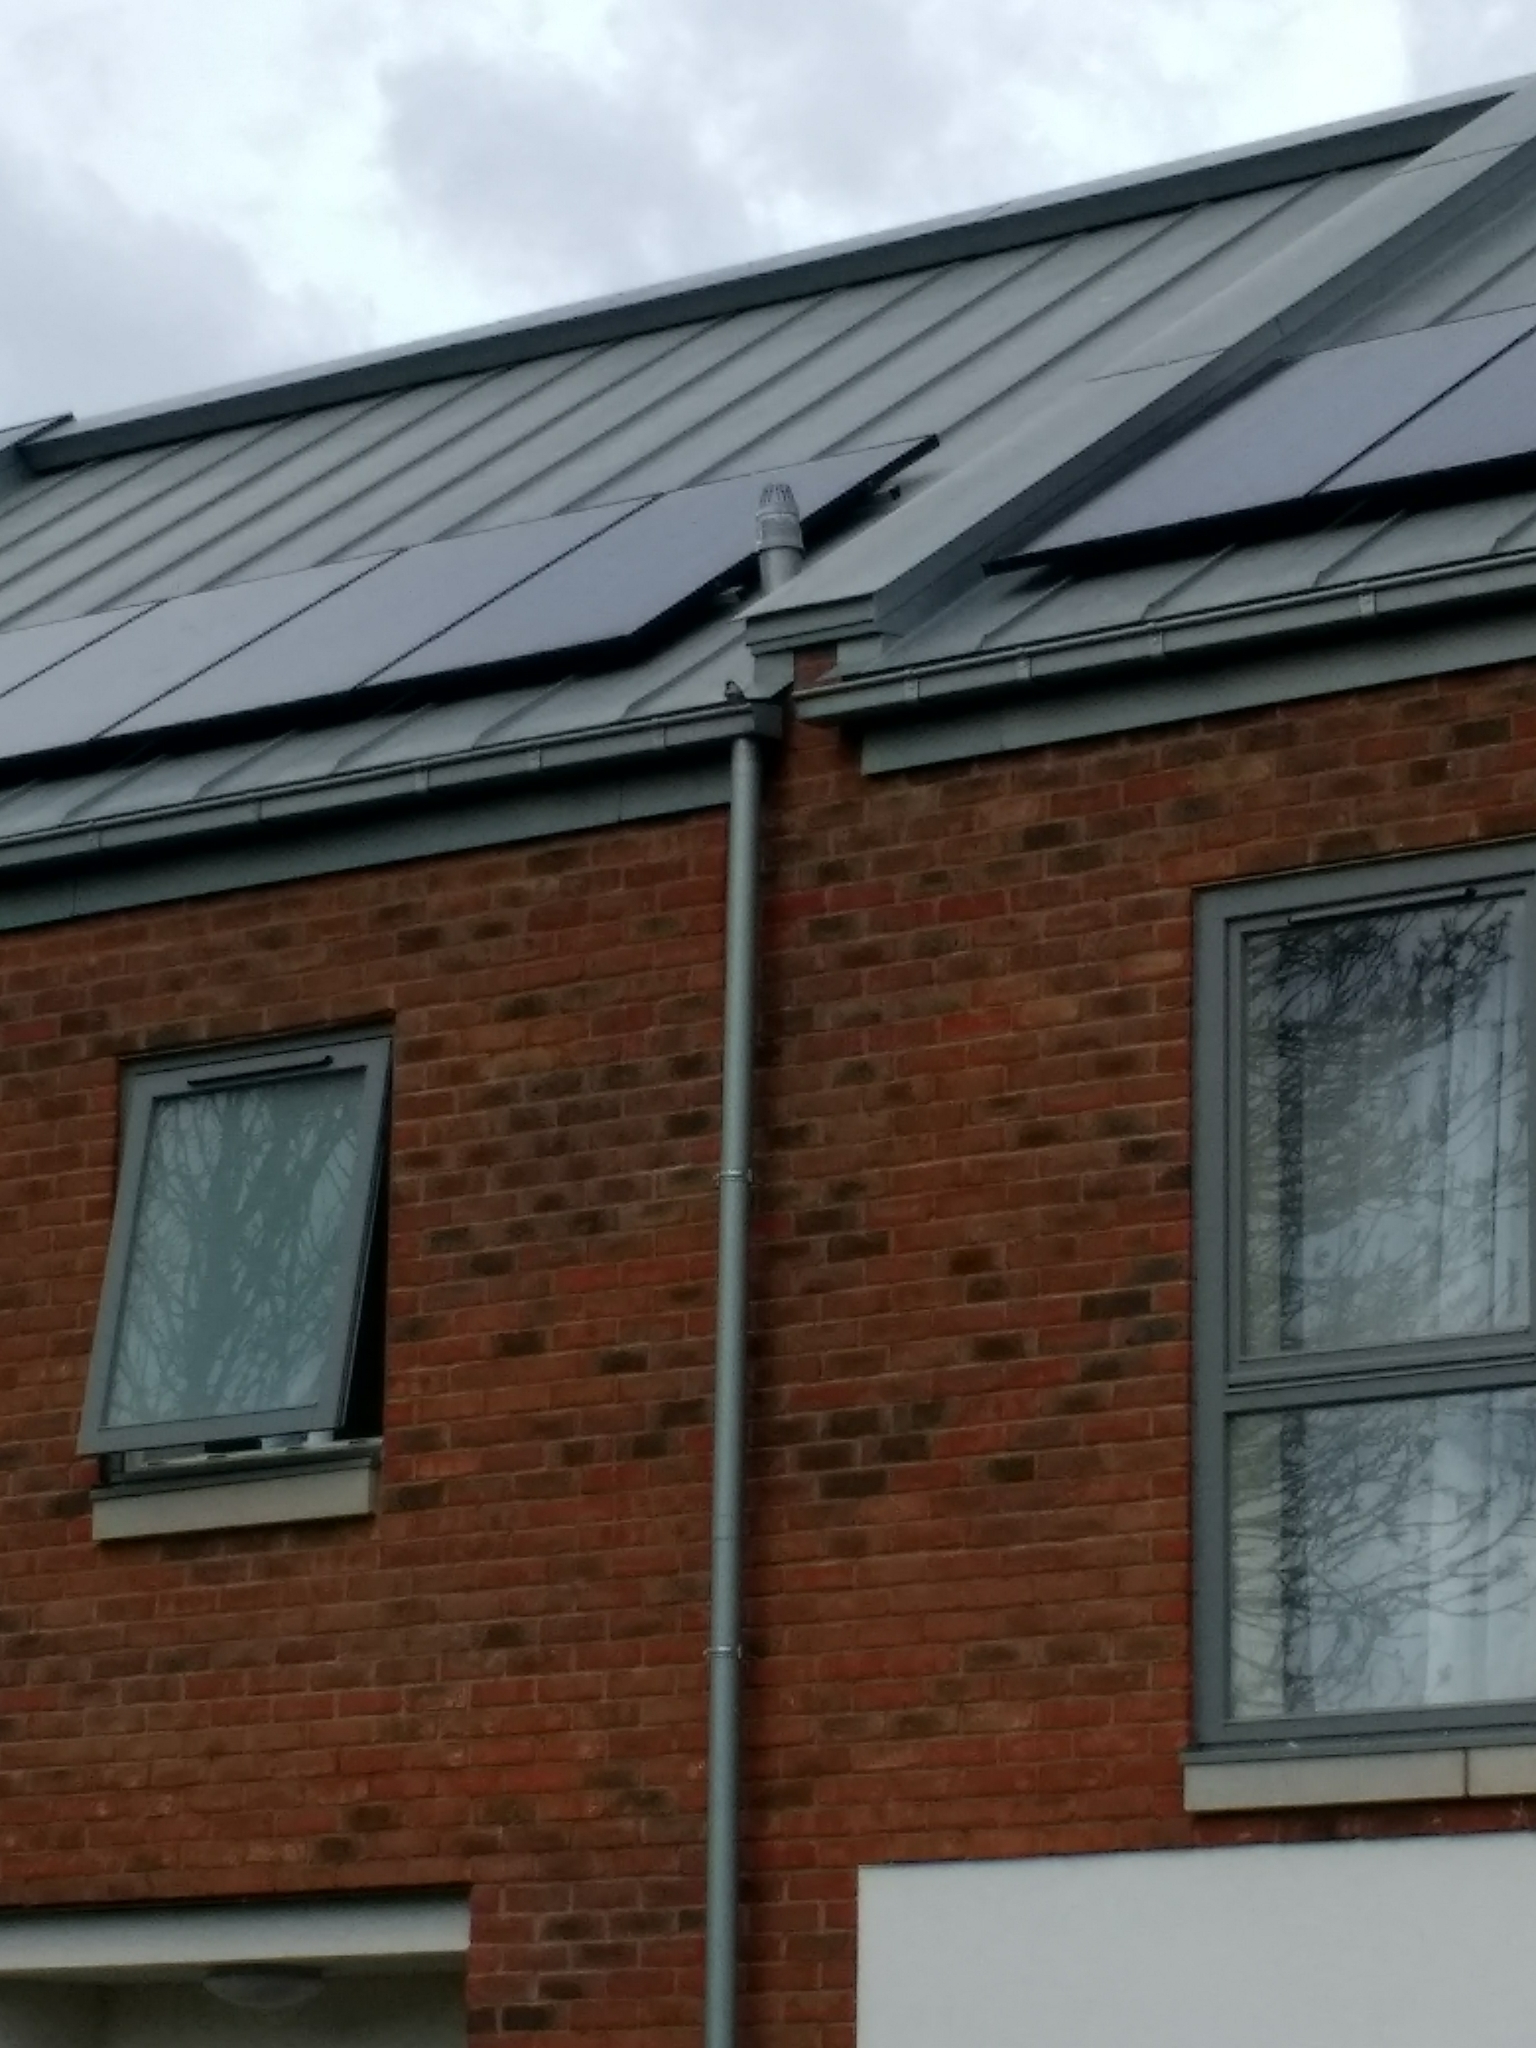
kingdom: Animalia
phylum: Chordata
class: Aves
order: Passeriformes
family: Passeridae
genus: Passer
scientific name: Passer domesticus
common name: House sparrow
